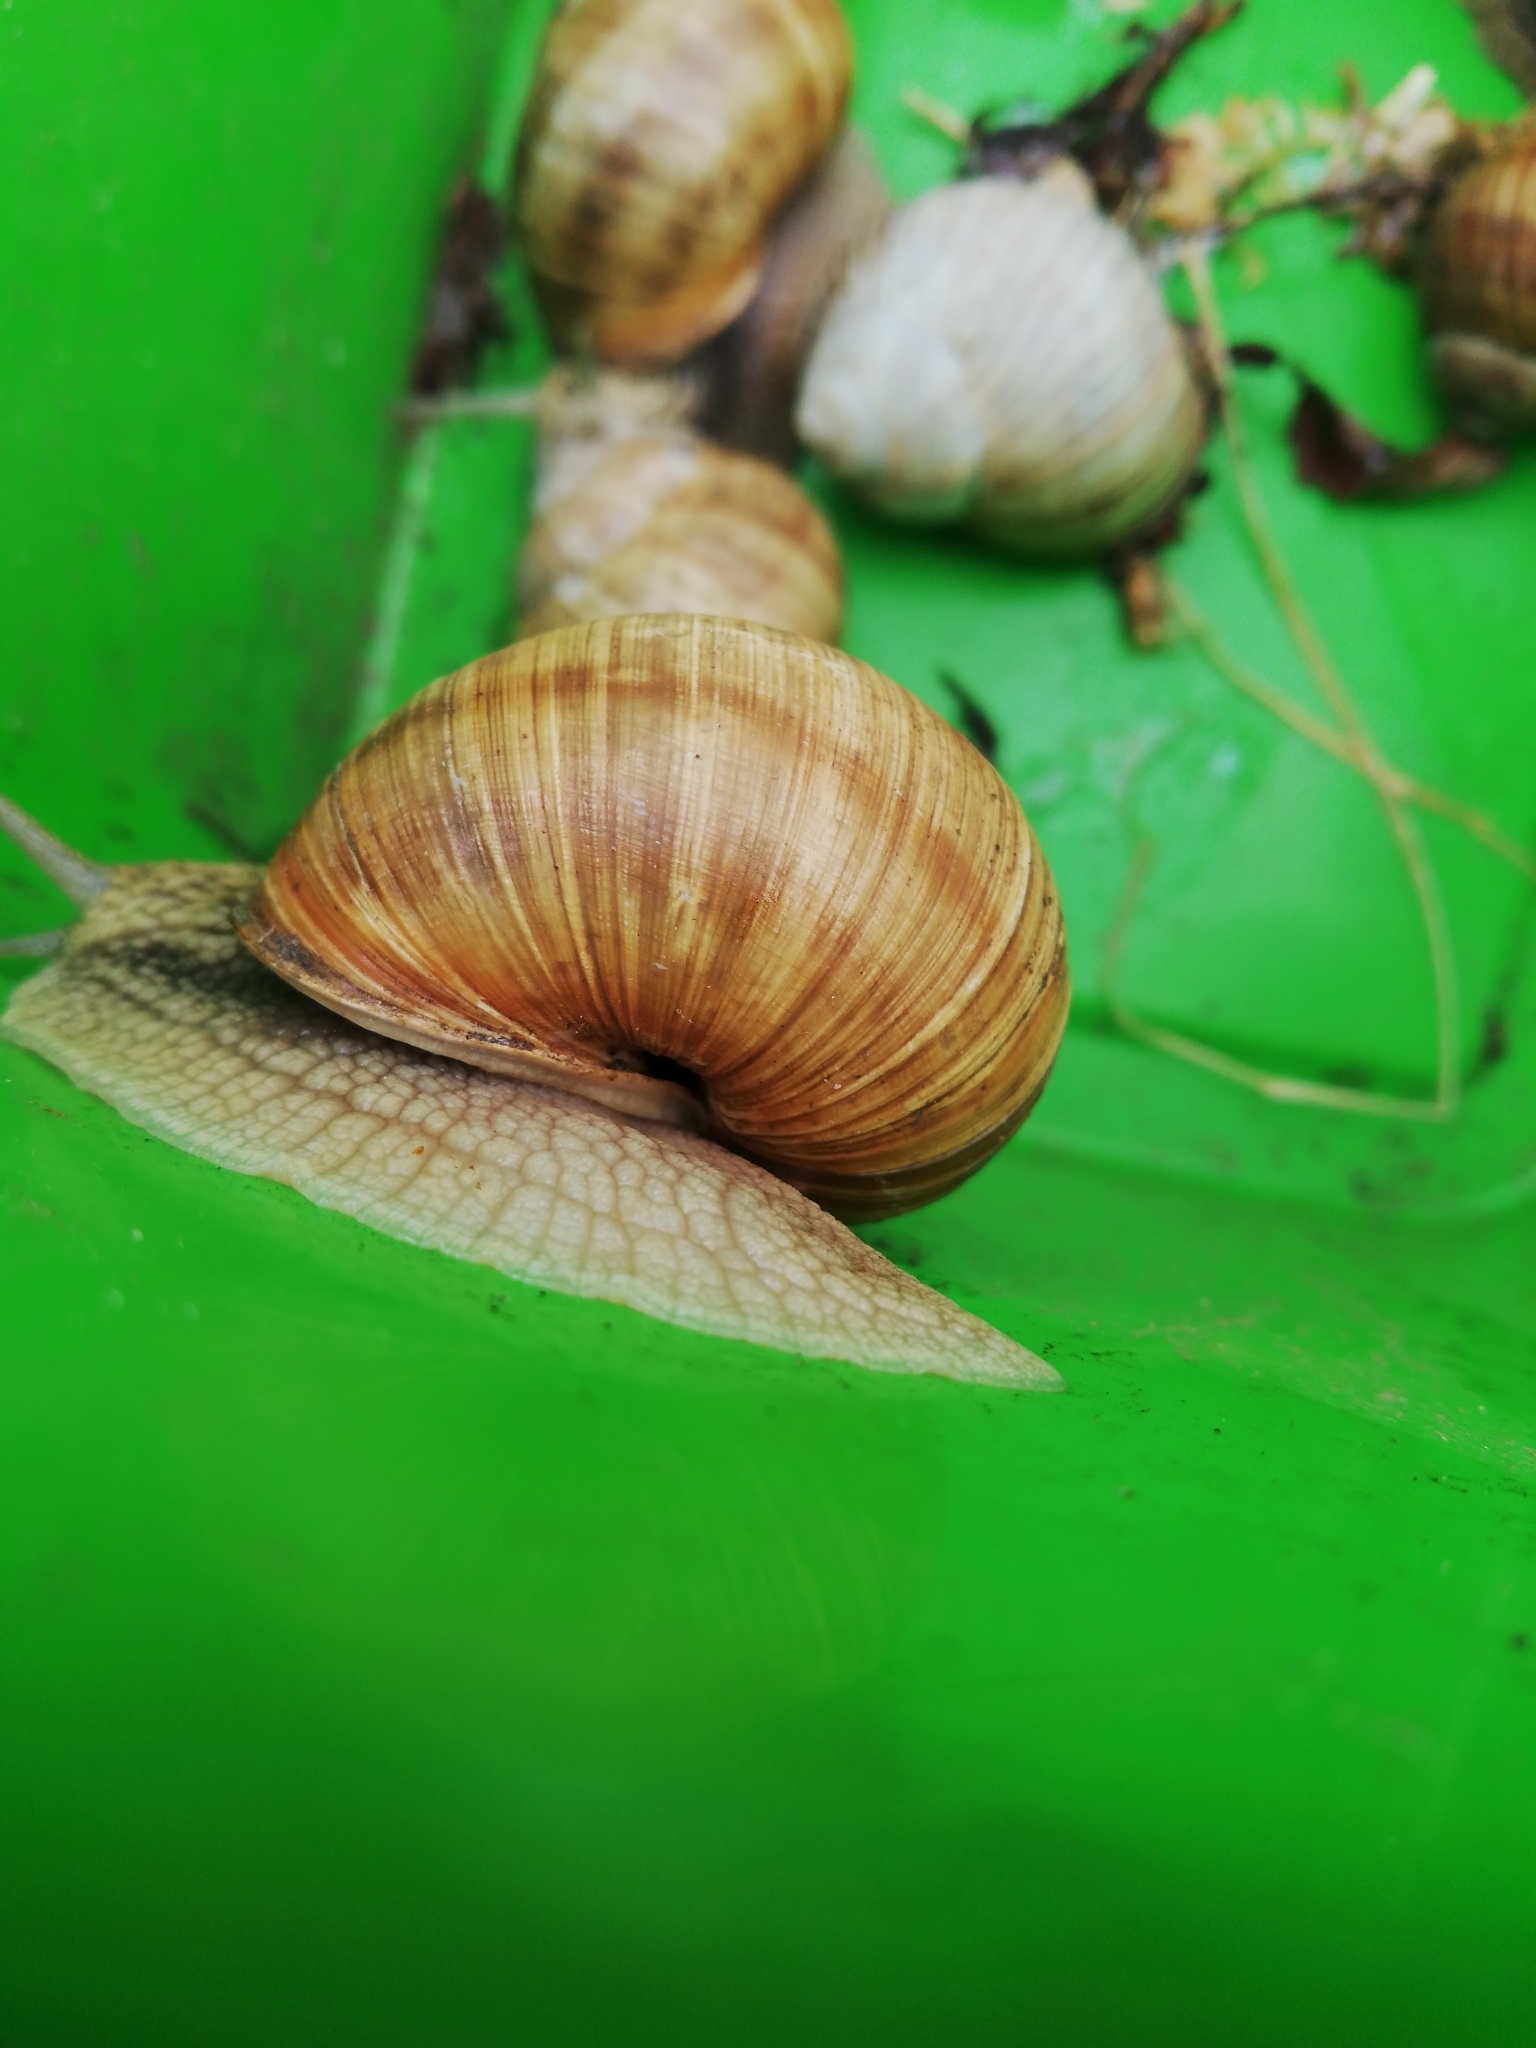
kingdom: Animalia
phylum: Mollusca
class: Gastropoda
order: Stylommatophora
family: Helicidae
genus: Helix
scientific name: Helix pomatia
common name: Roman snail
